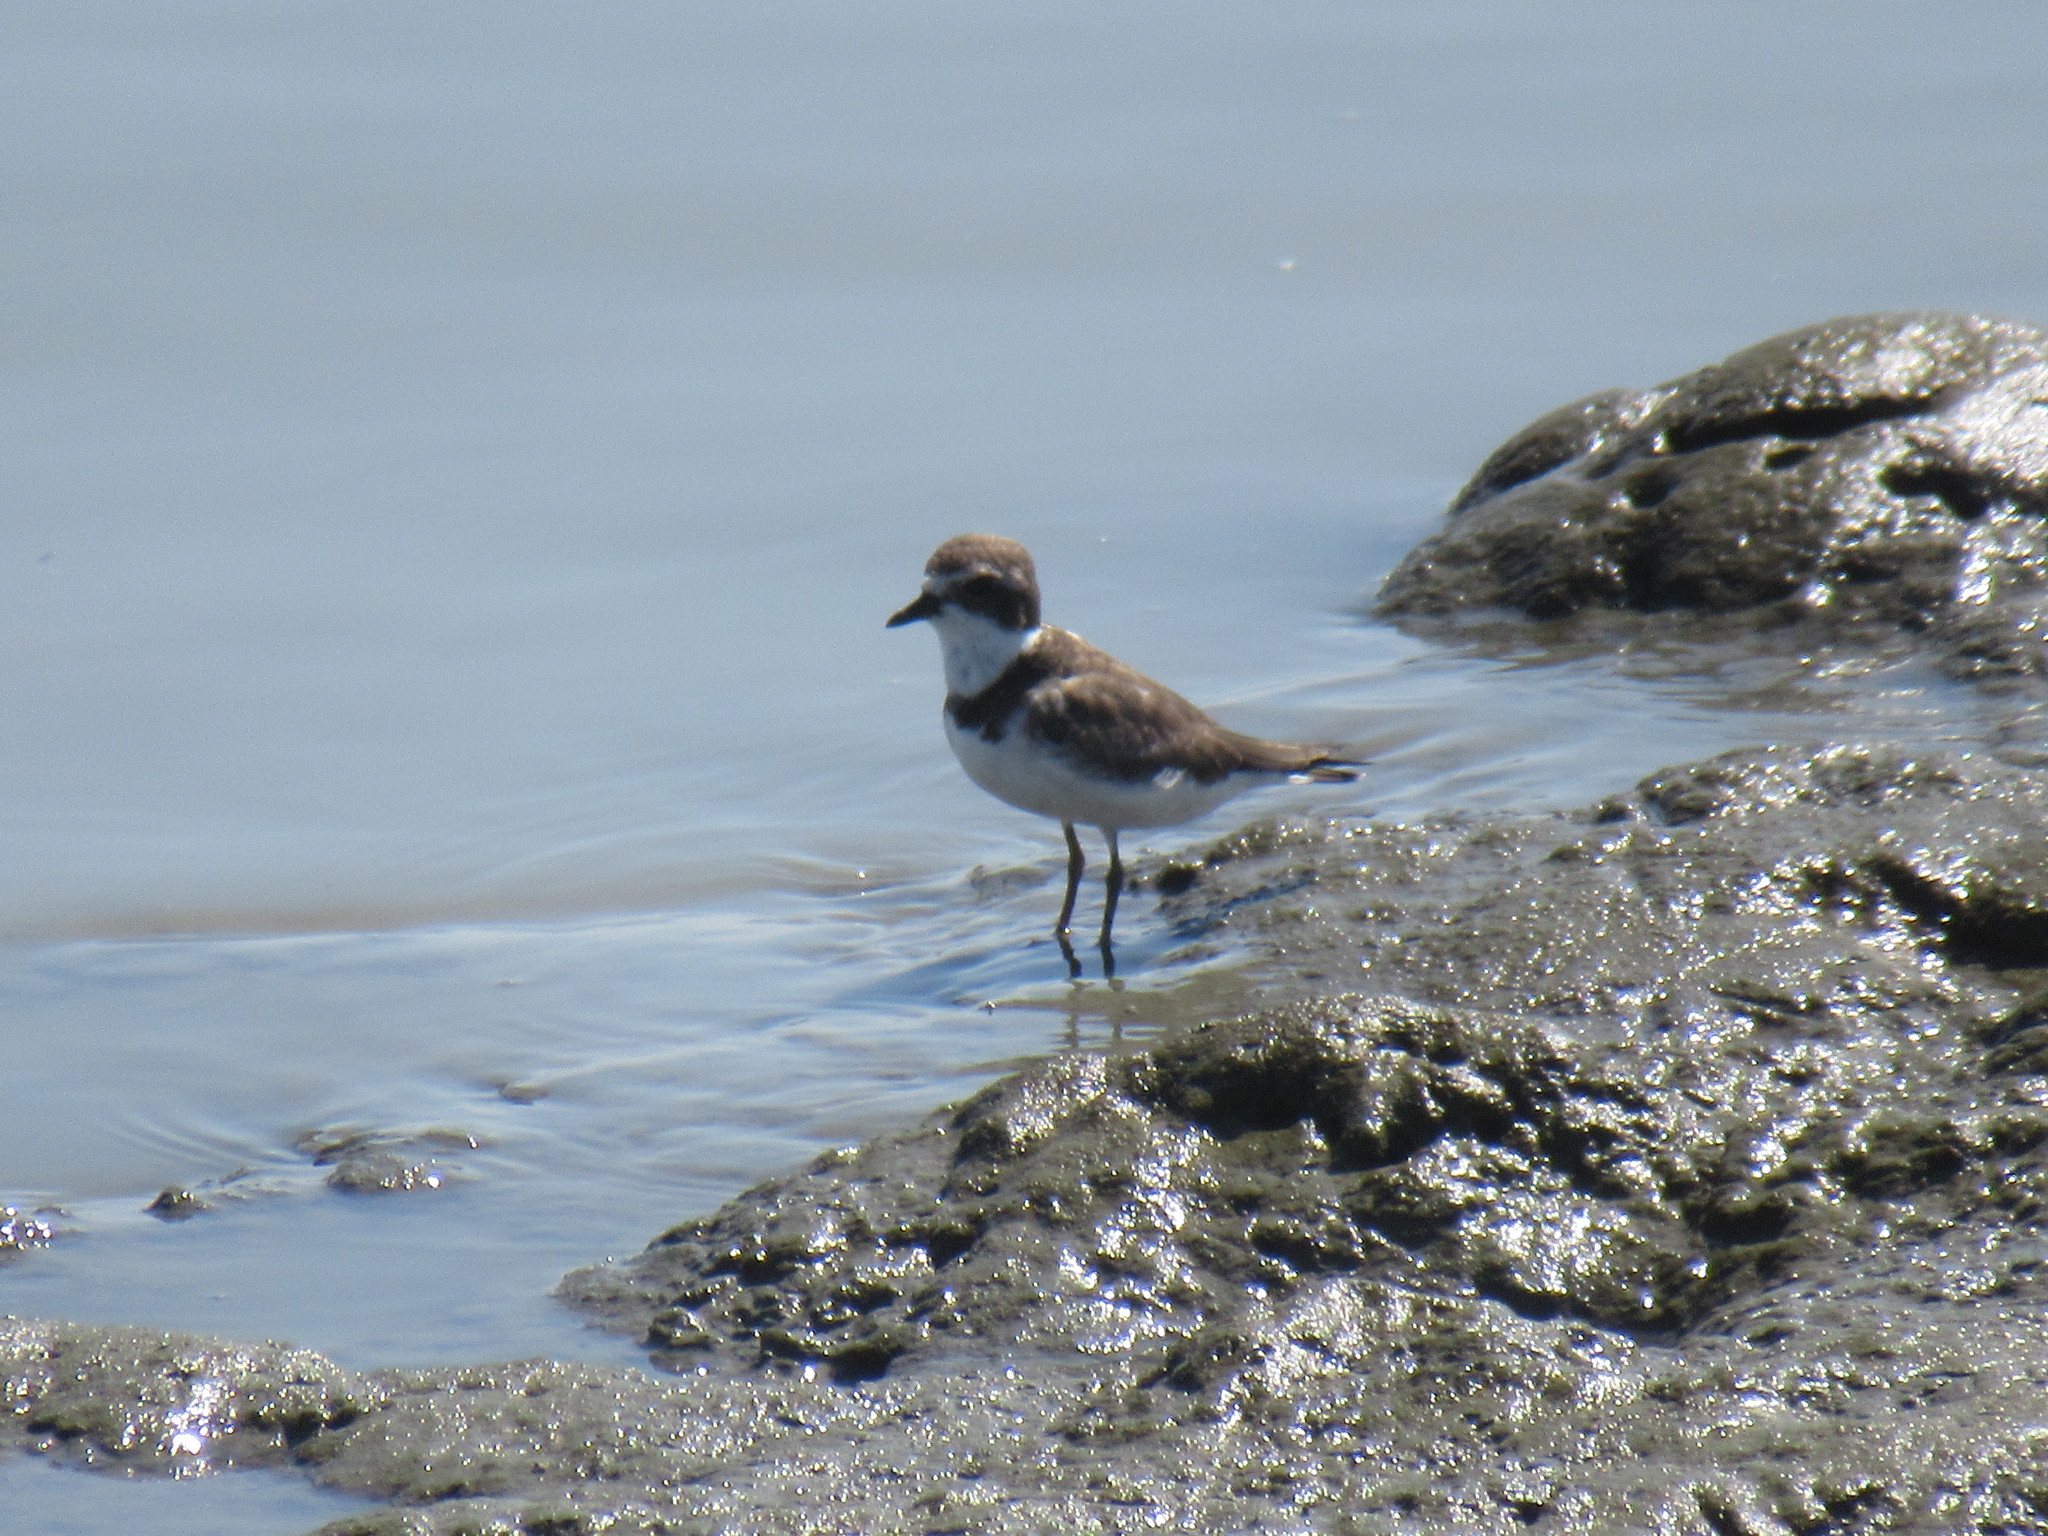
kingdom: Animalia
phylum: Chordata
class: Aves
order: Charadriiformes
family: Charadriidae
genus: Charadrius
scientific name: Charadrius semipalmatus
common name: Semipalmated plover
